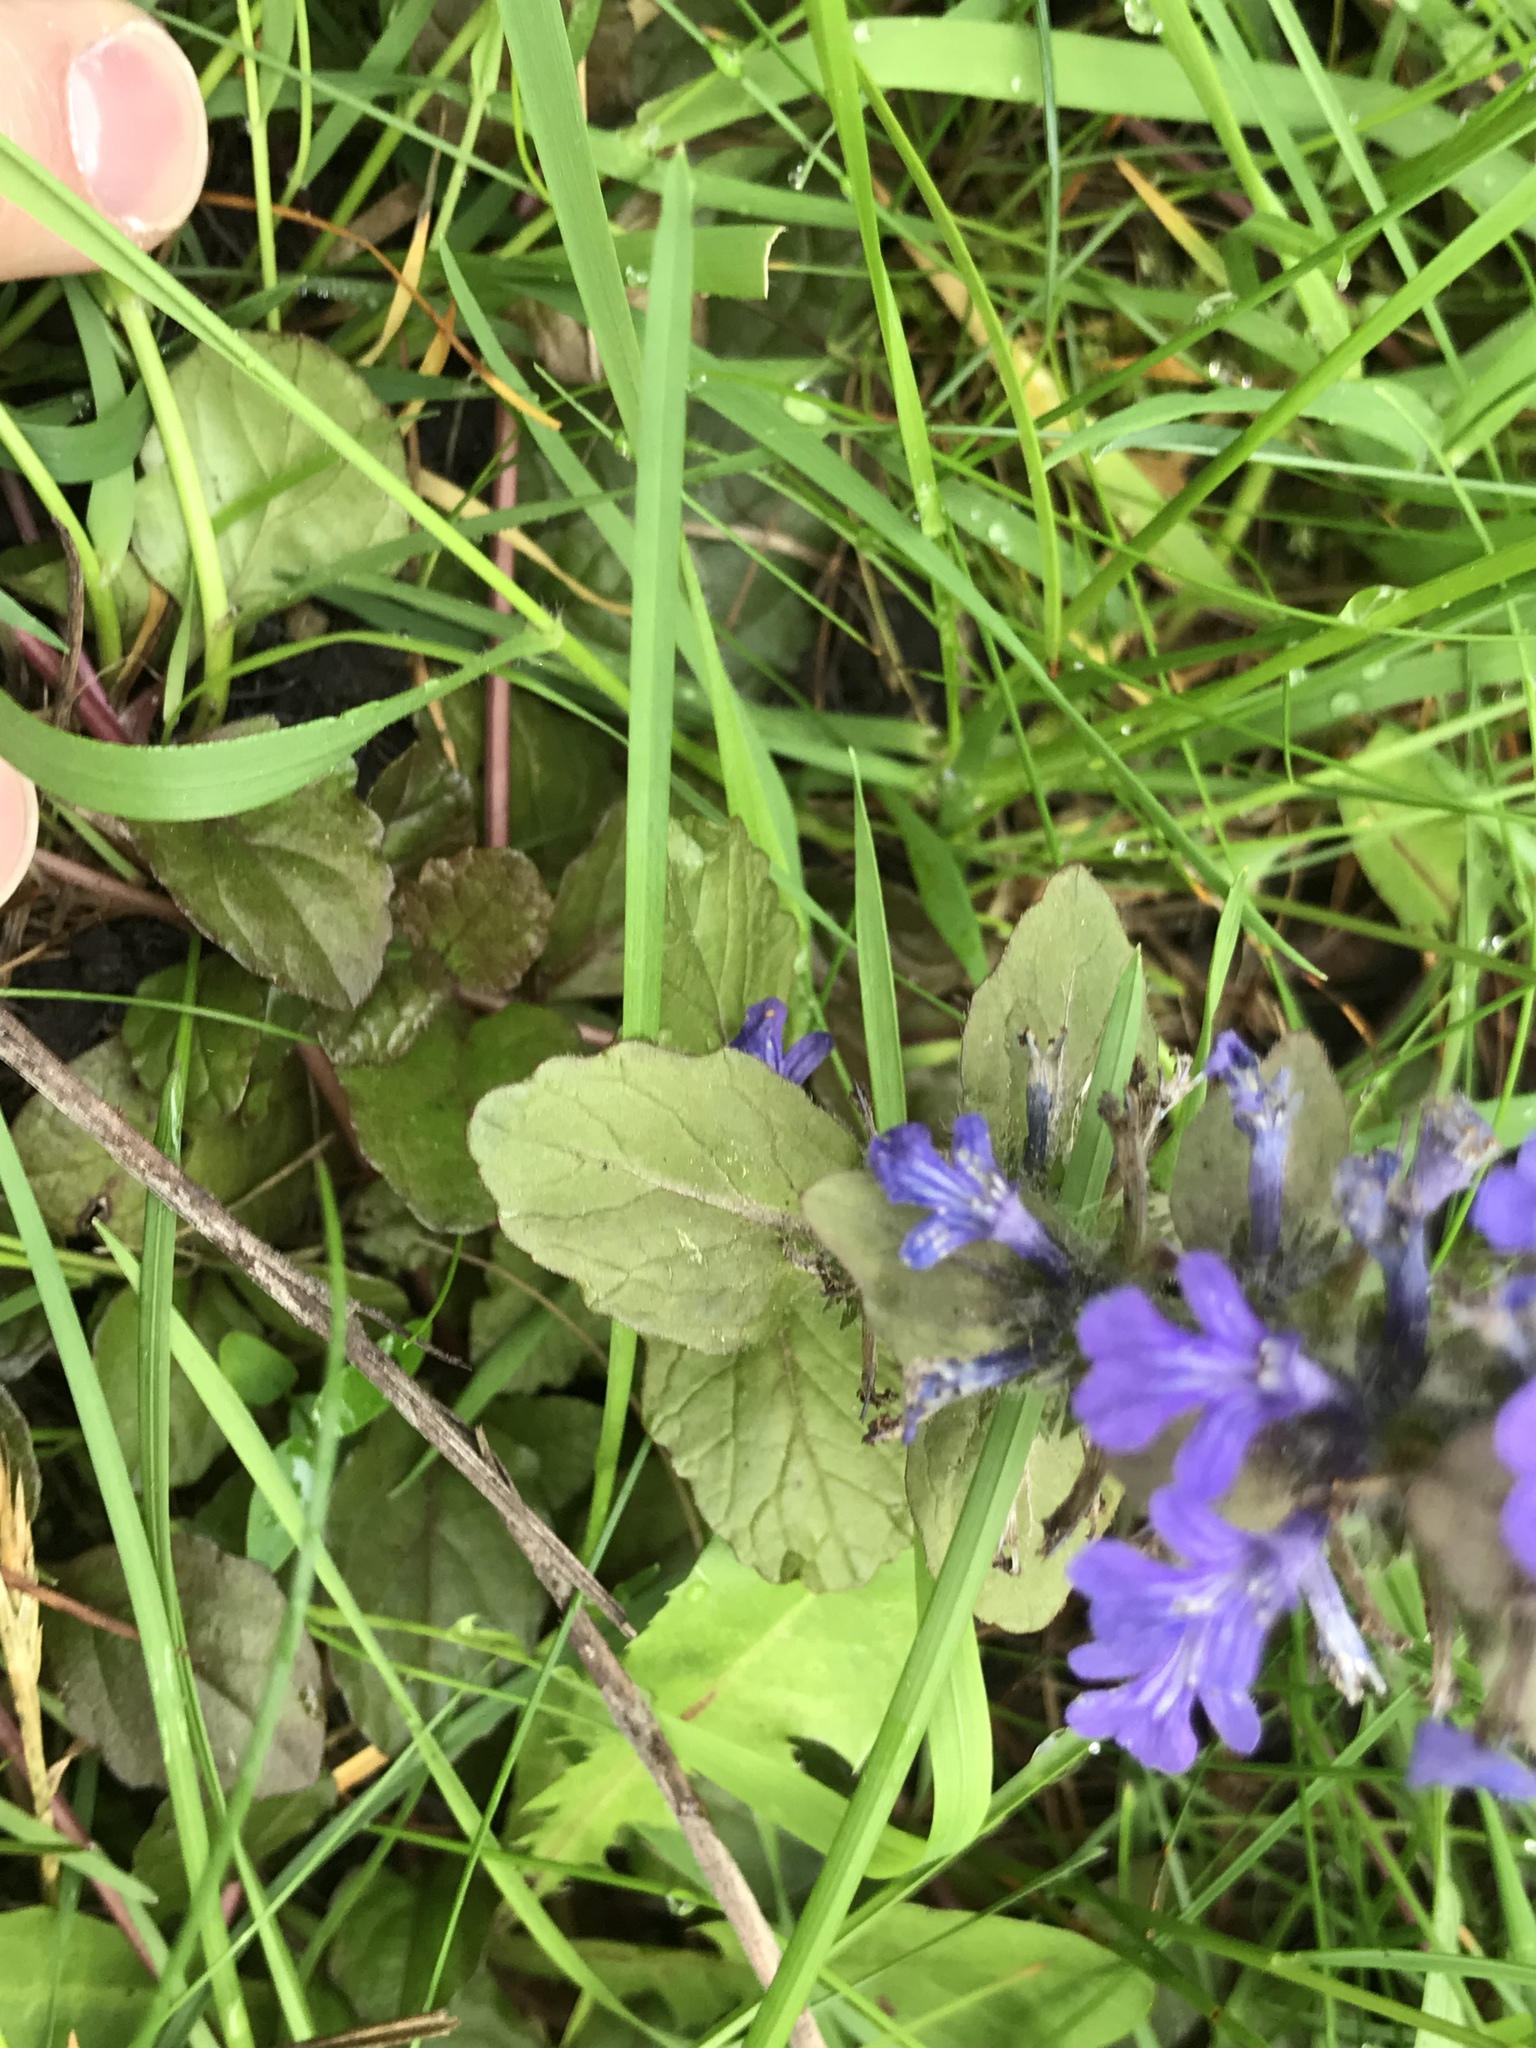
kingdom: Plantae
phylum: Tracheophyta
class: Magnoliopsida
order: Lamiales
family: Lamiaceae
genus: Ajuga
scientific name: Ajuga reptans
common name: Bugle
